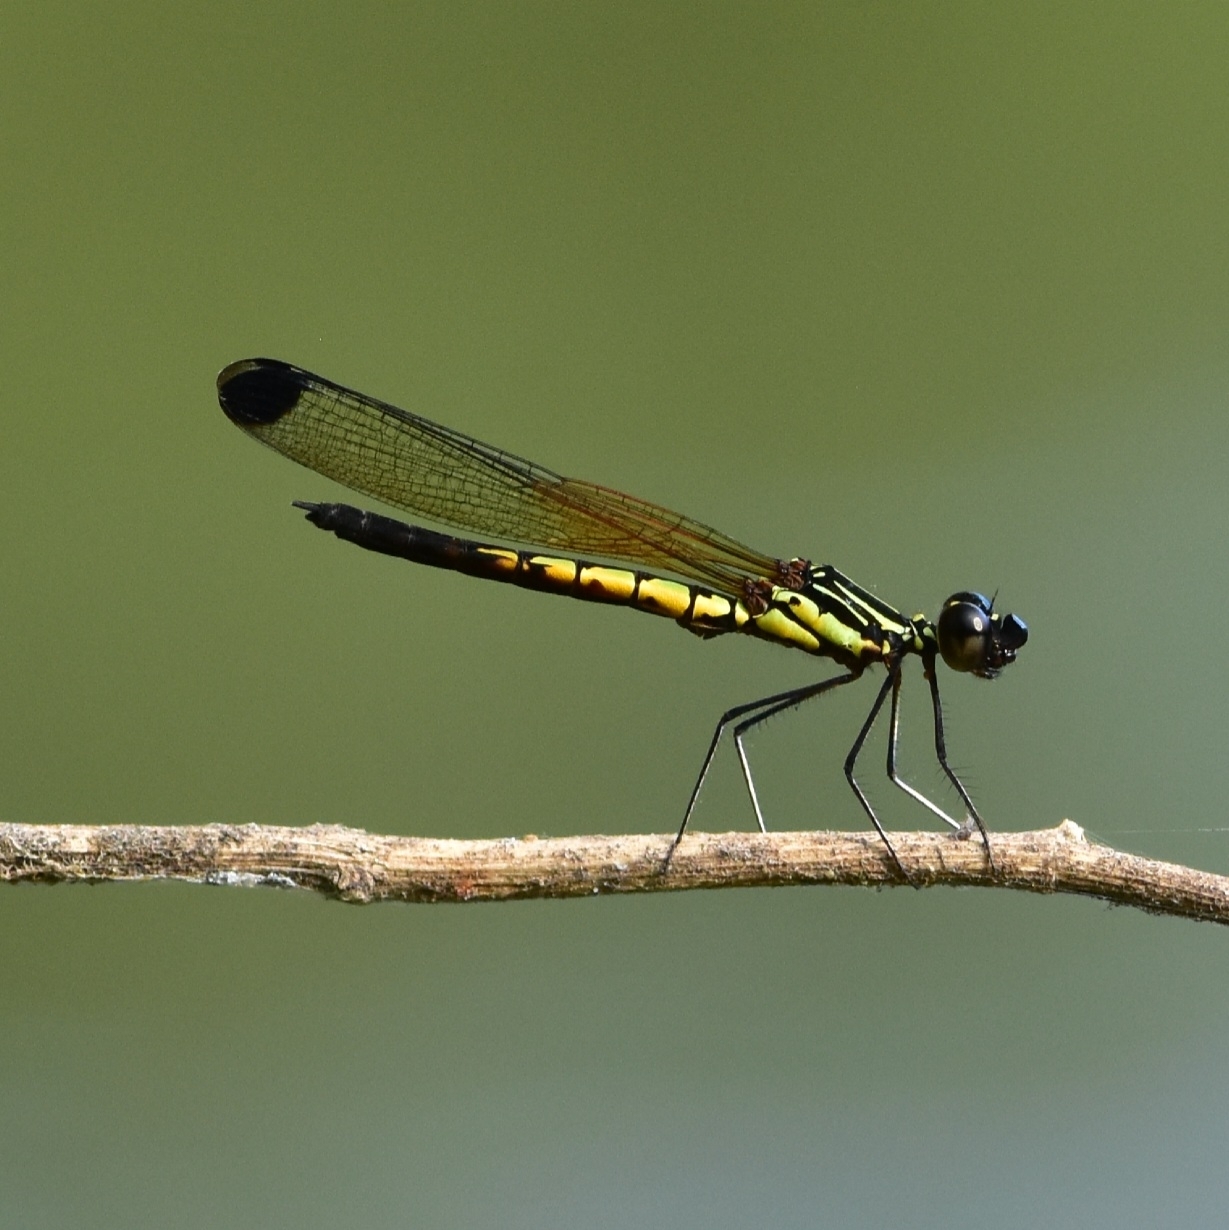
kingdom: Animalia
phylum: Arthropoda
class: Insecta
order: Odonata
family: Chlorocyphidae
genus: Libellago
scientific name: Libellago indica
